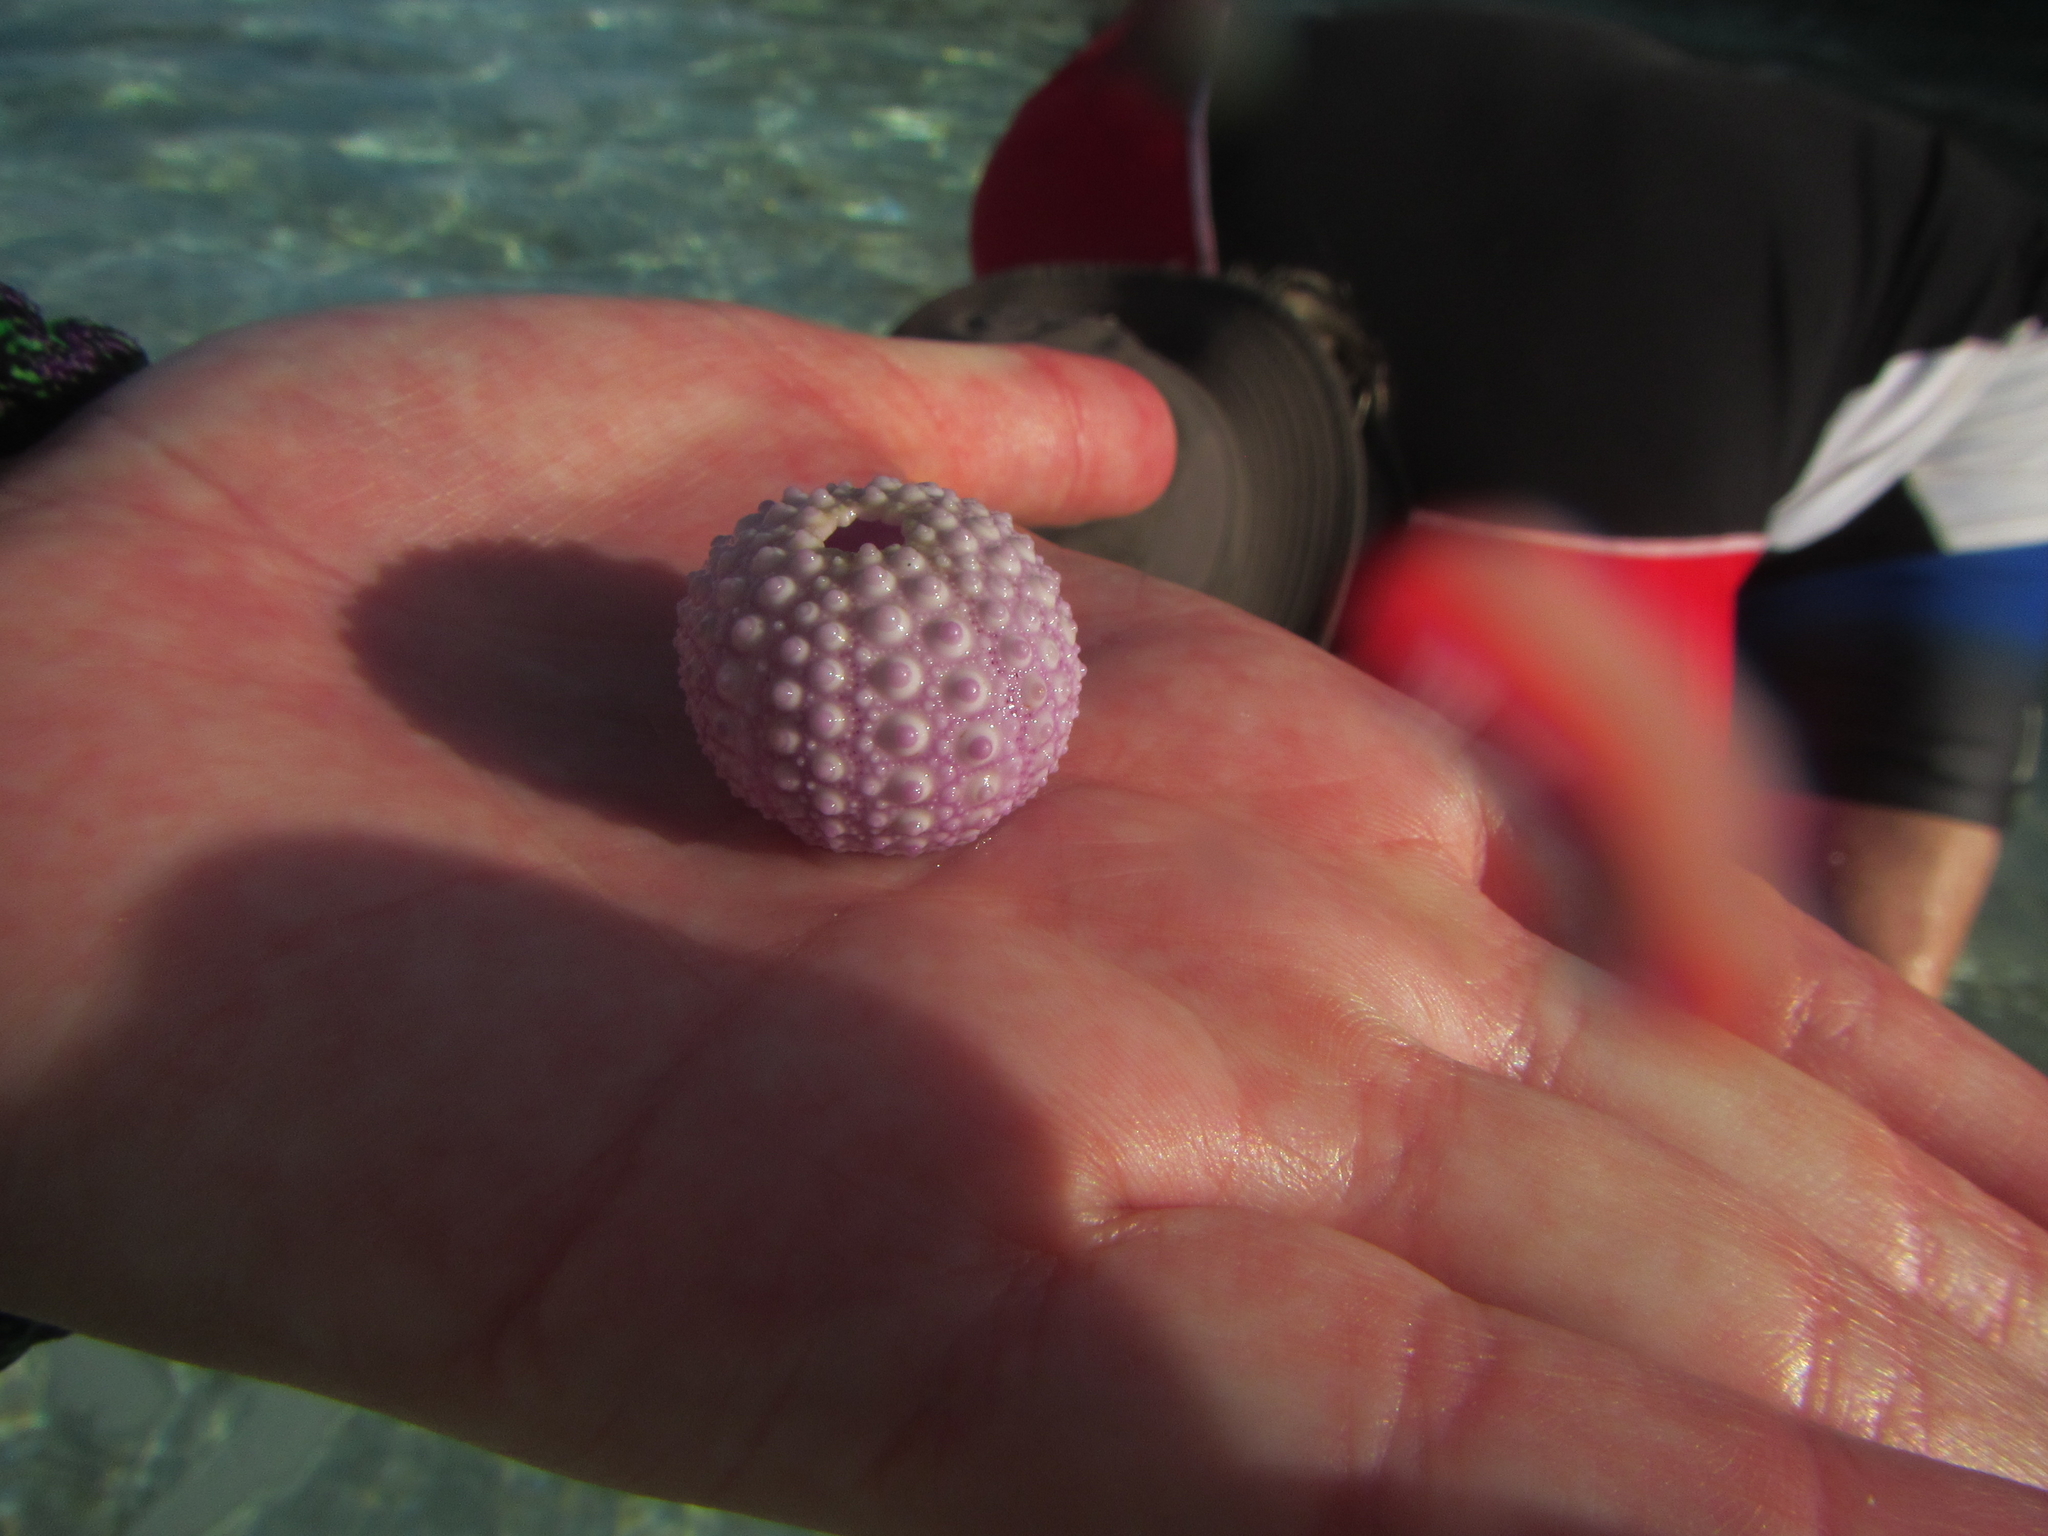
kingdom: Animalia
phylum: Echinodermata
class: Echinoidea
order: Diadematoida
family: Diadematidae
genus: Diadema
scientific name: Diadema setosum
